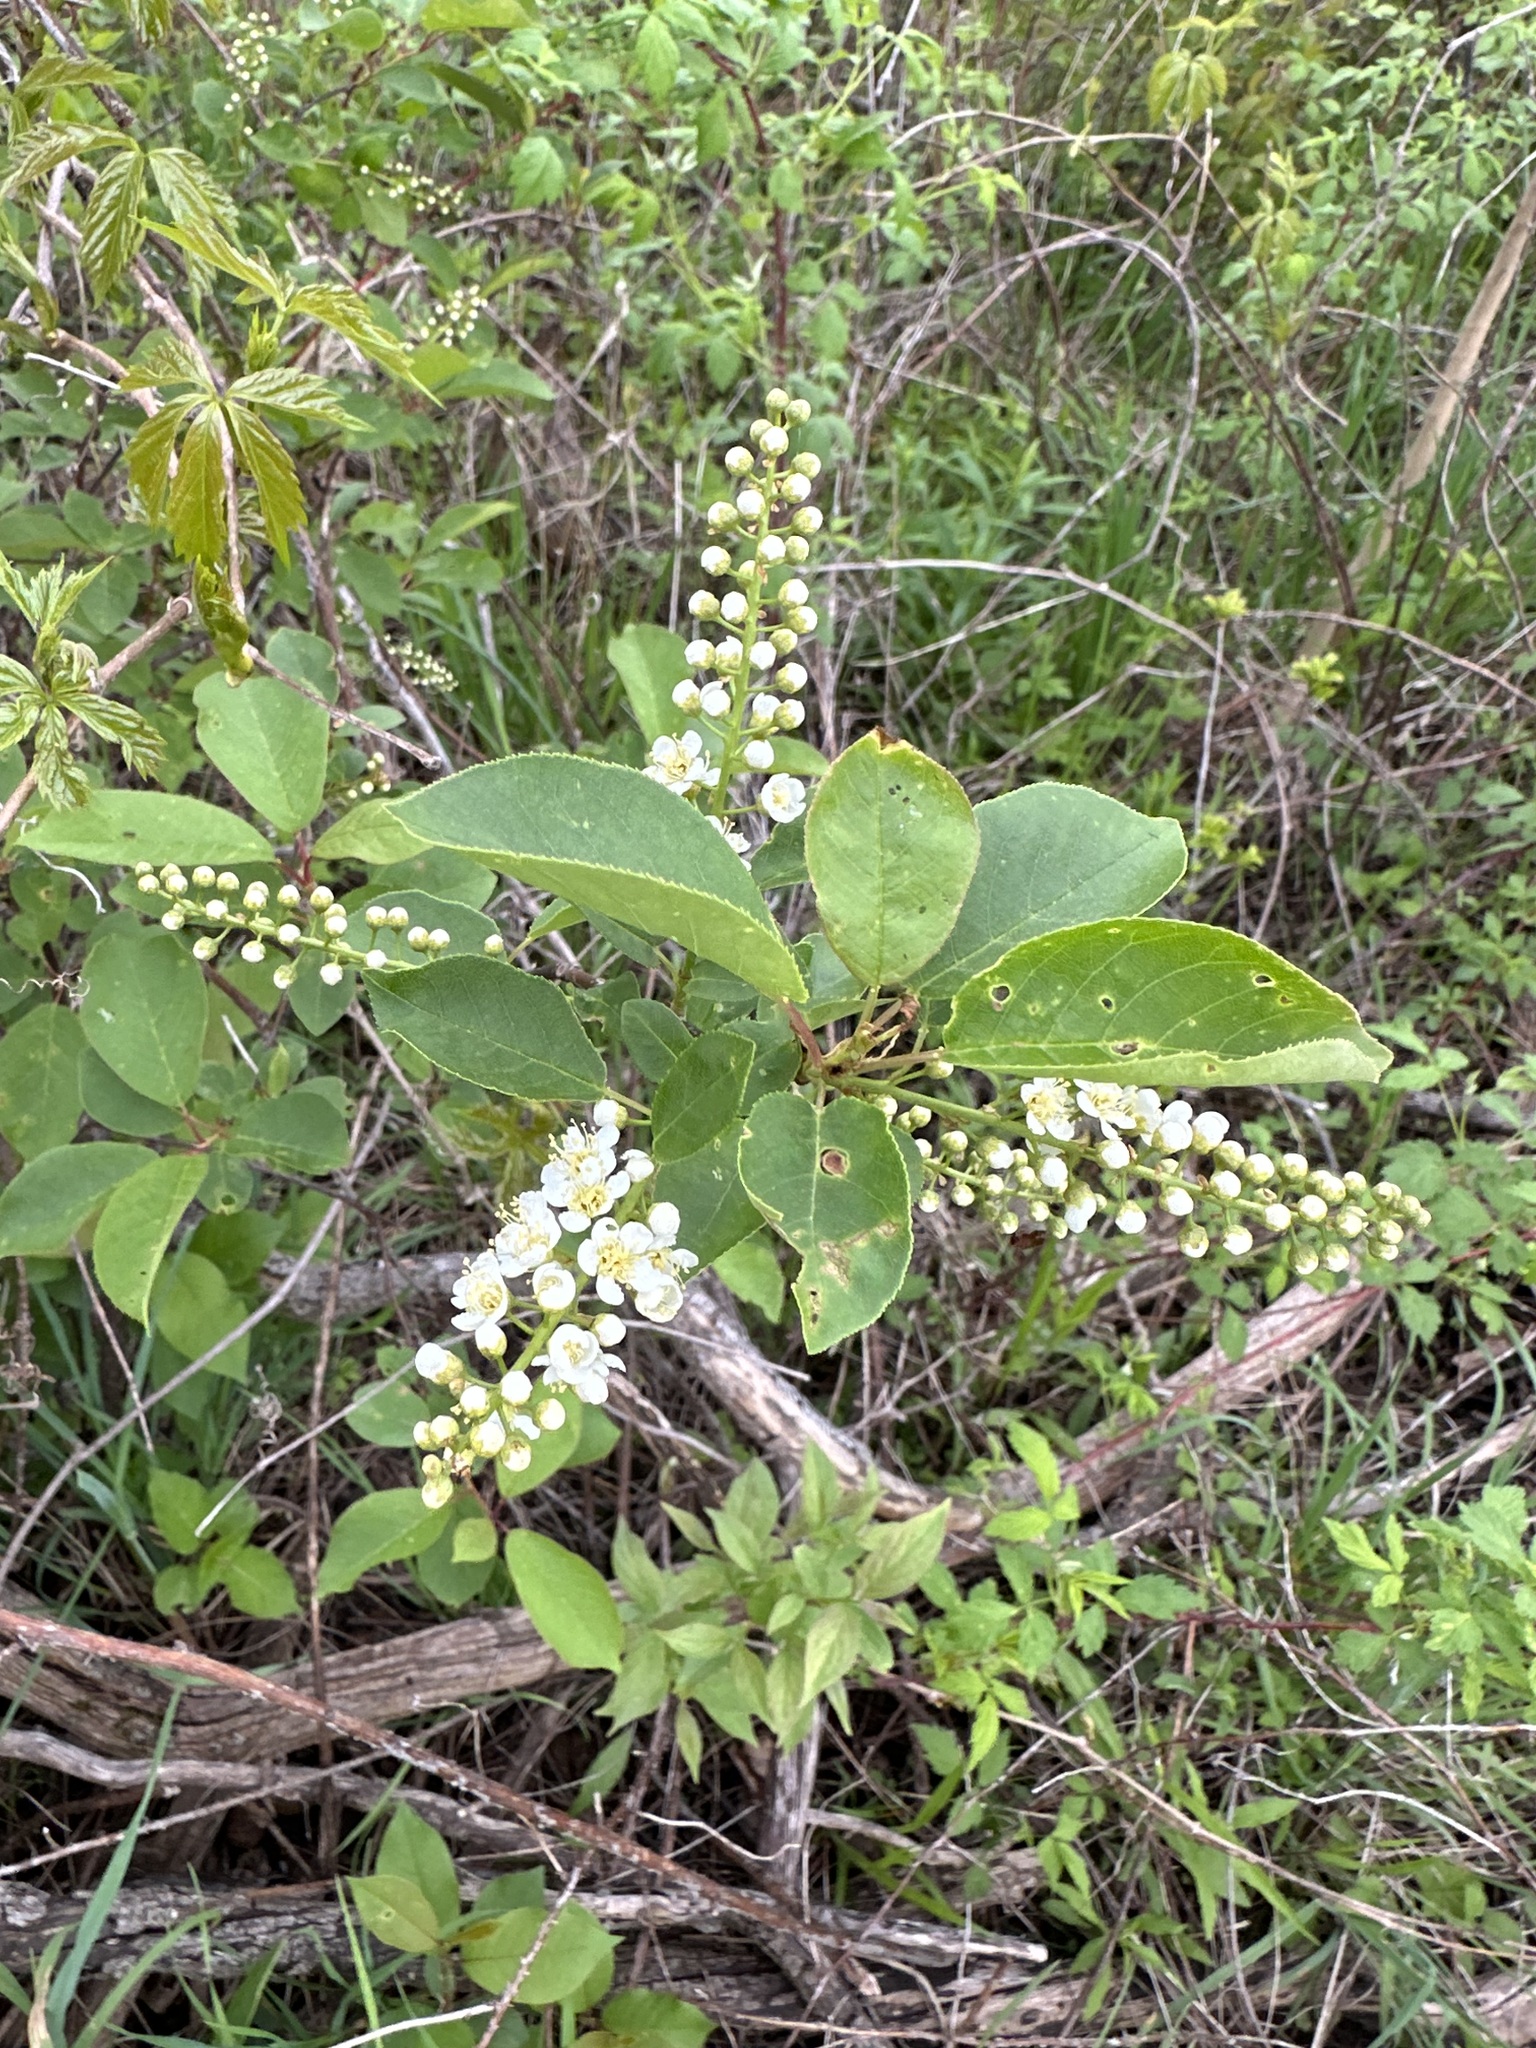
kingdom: Plantae
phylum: Tracheophyta
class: Magnoliopsida
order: Rosales
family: Rosaceae
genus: Prunus
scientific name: Prunus virginiana
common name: Chokecherry
